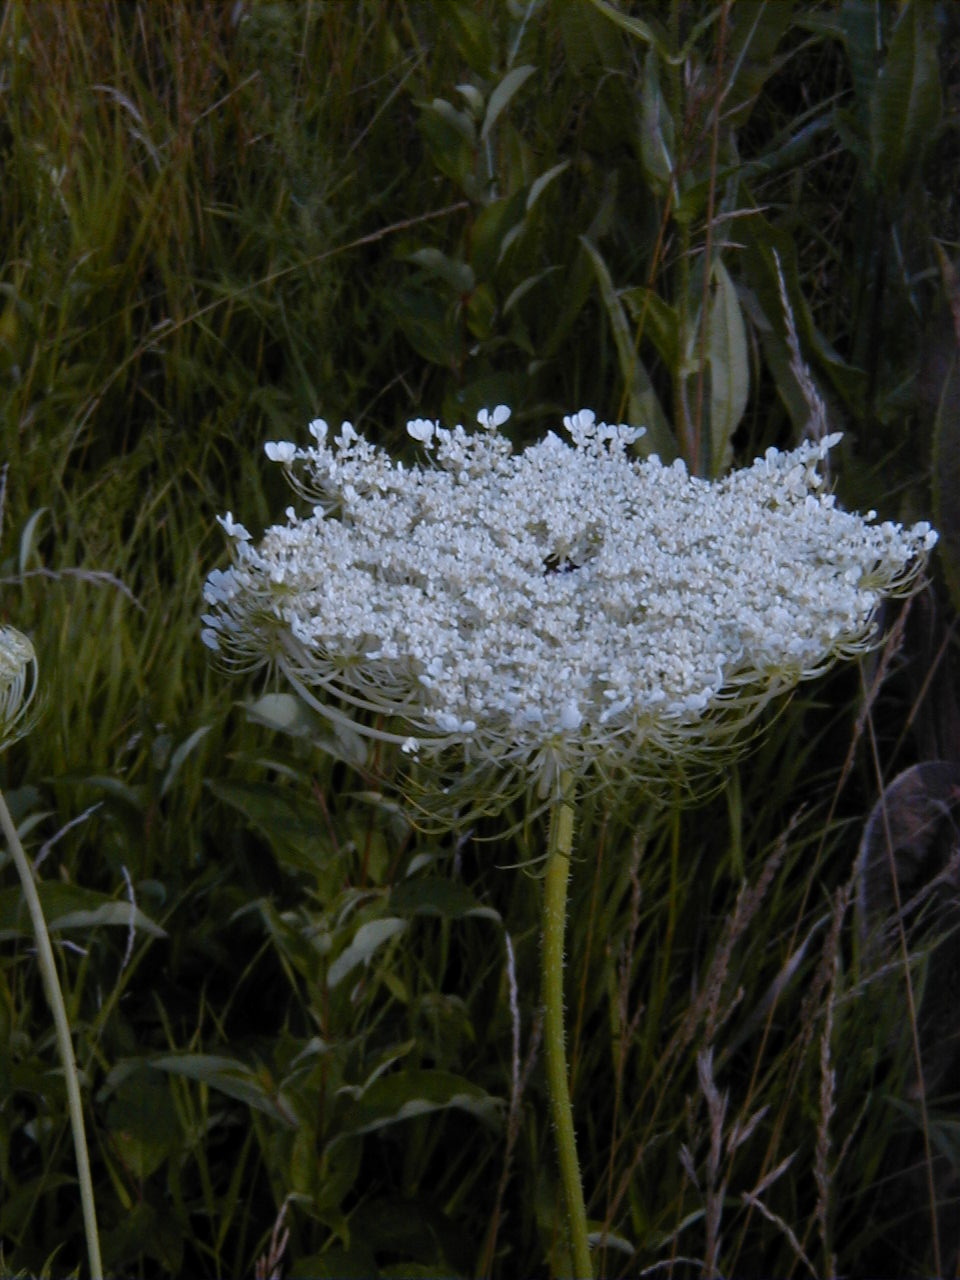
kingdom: Plantae
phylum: Tracheophyta
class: Magnoliopsida
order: Apiales
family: Apiaceae
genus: Daucus
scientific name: Daucus carota
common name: Wild carrot
